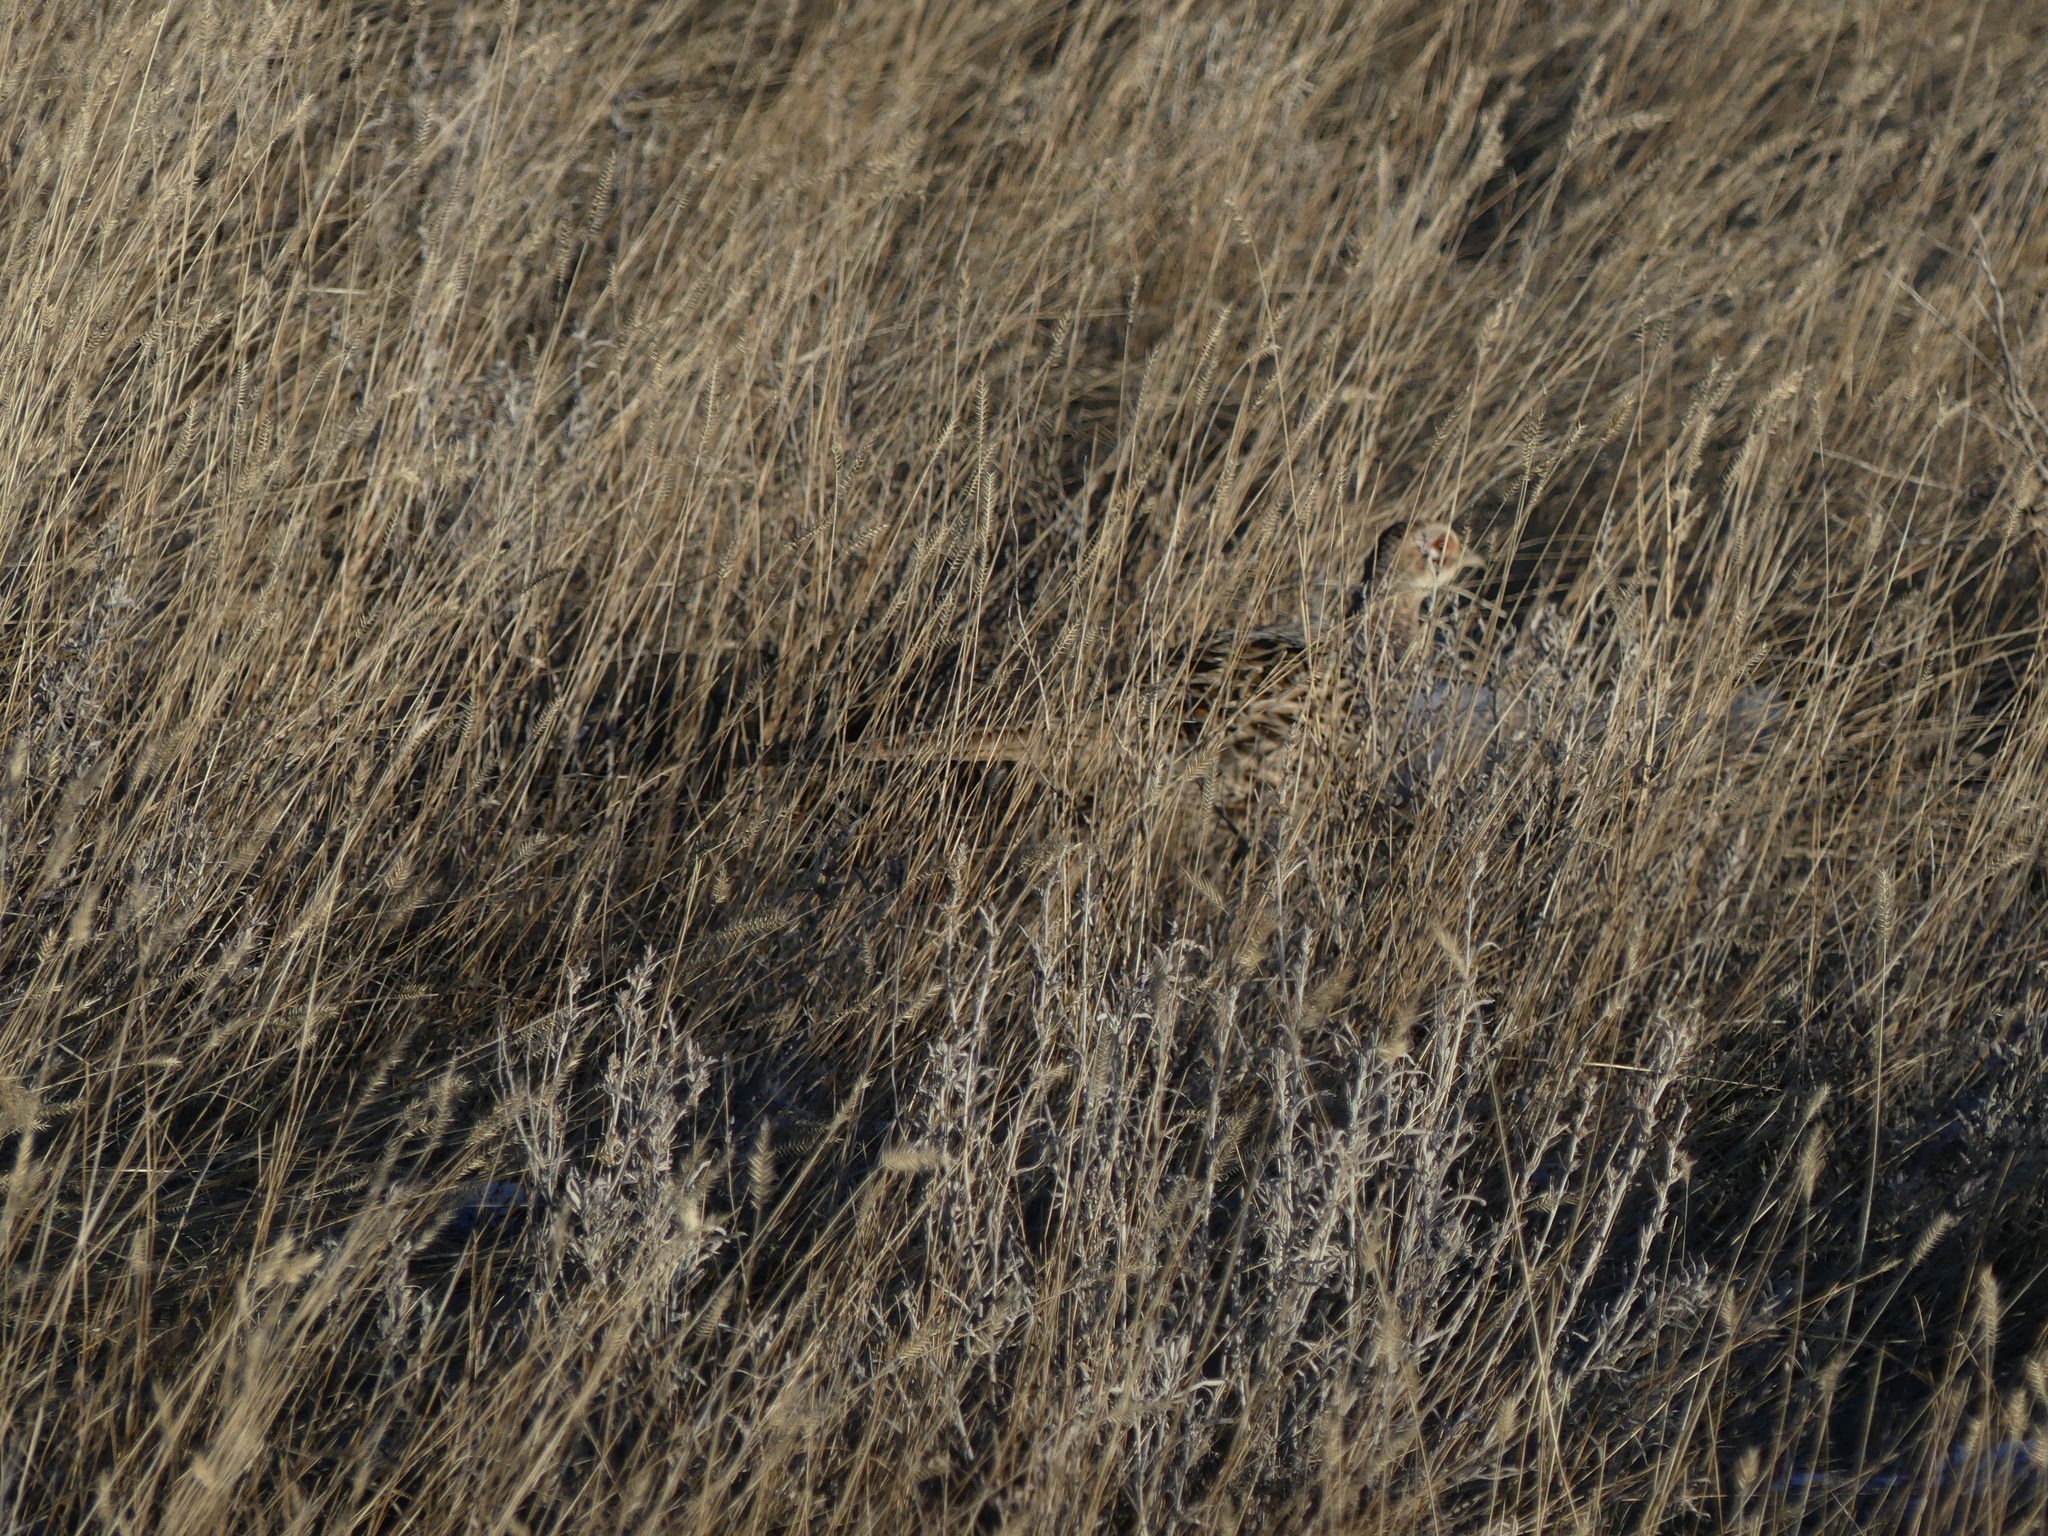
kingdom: Animalia
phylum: Chordata
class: Aves
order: Galliformes
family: Phasianidae
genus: Phasianus
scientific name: Phasianus colchicus
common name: Common pheasant
